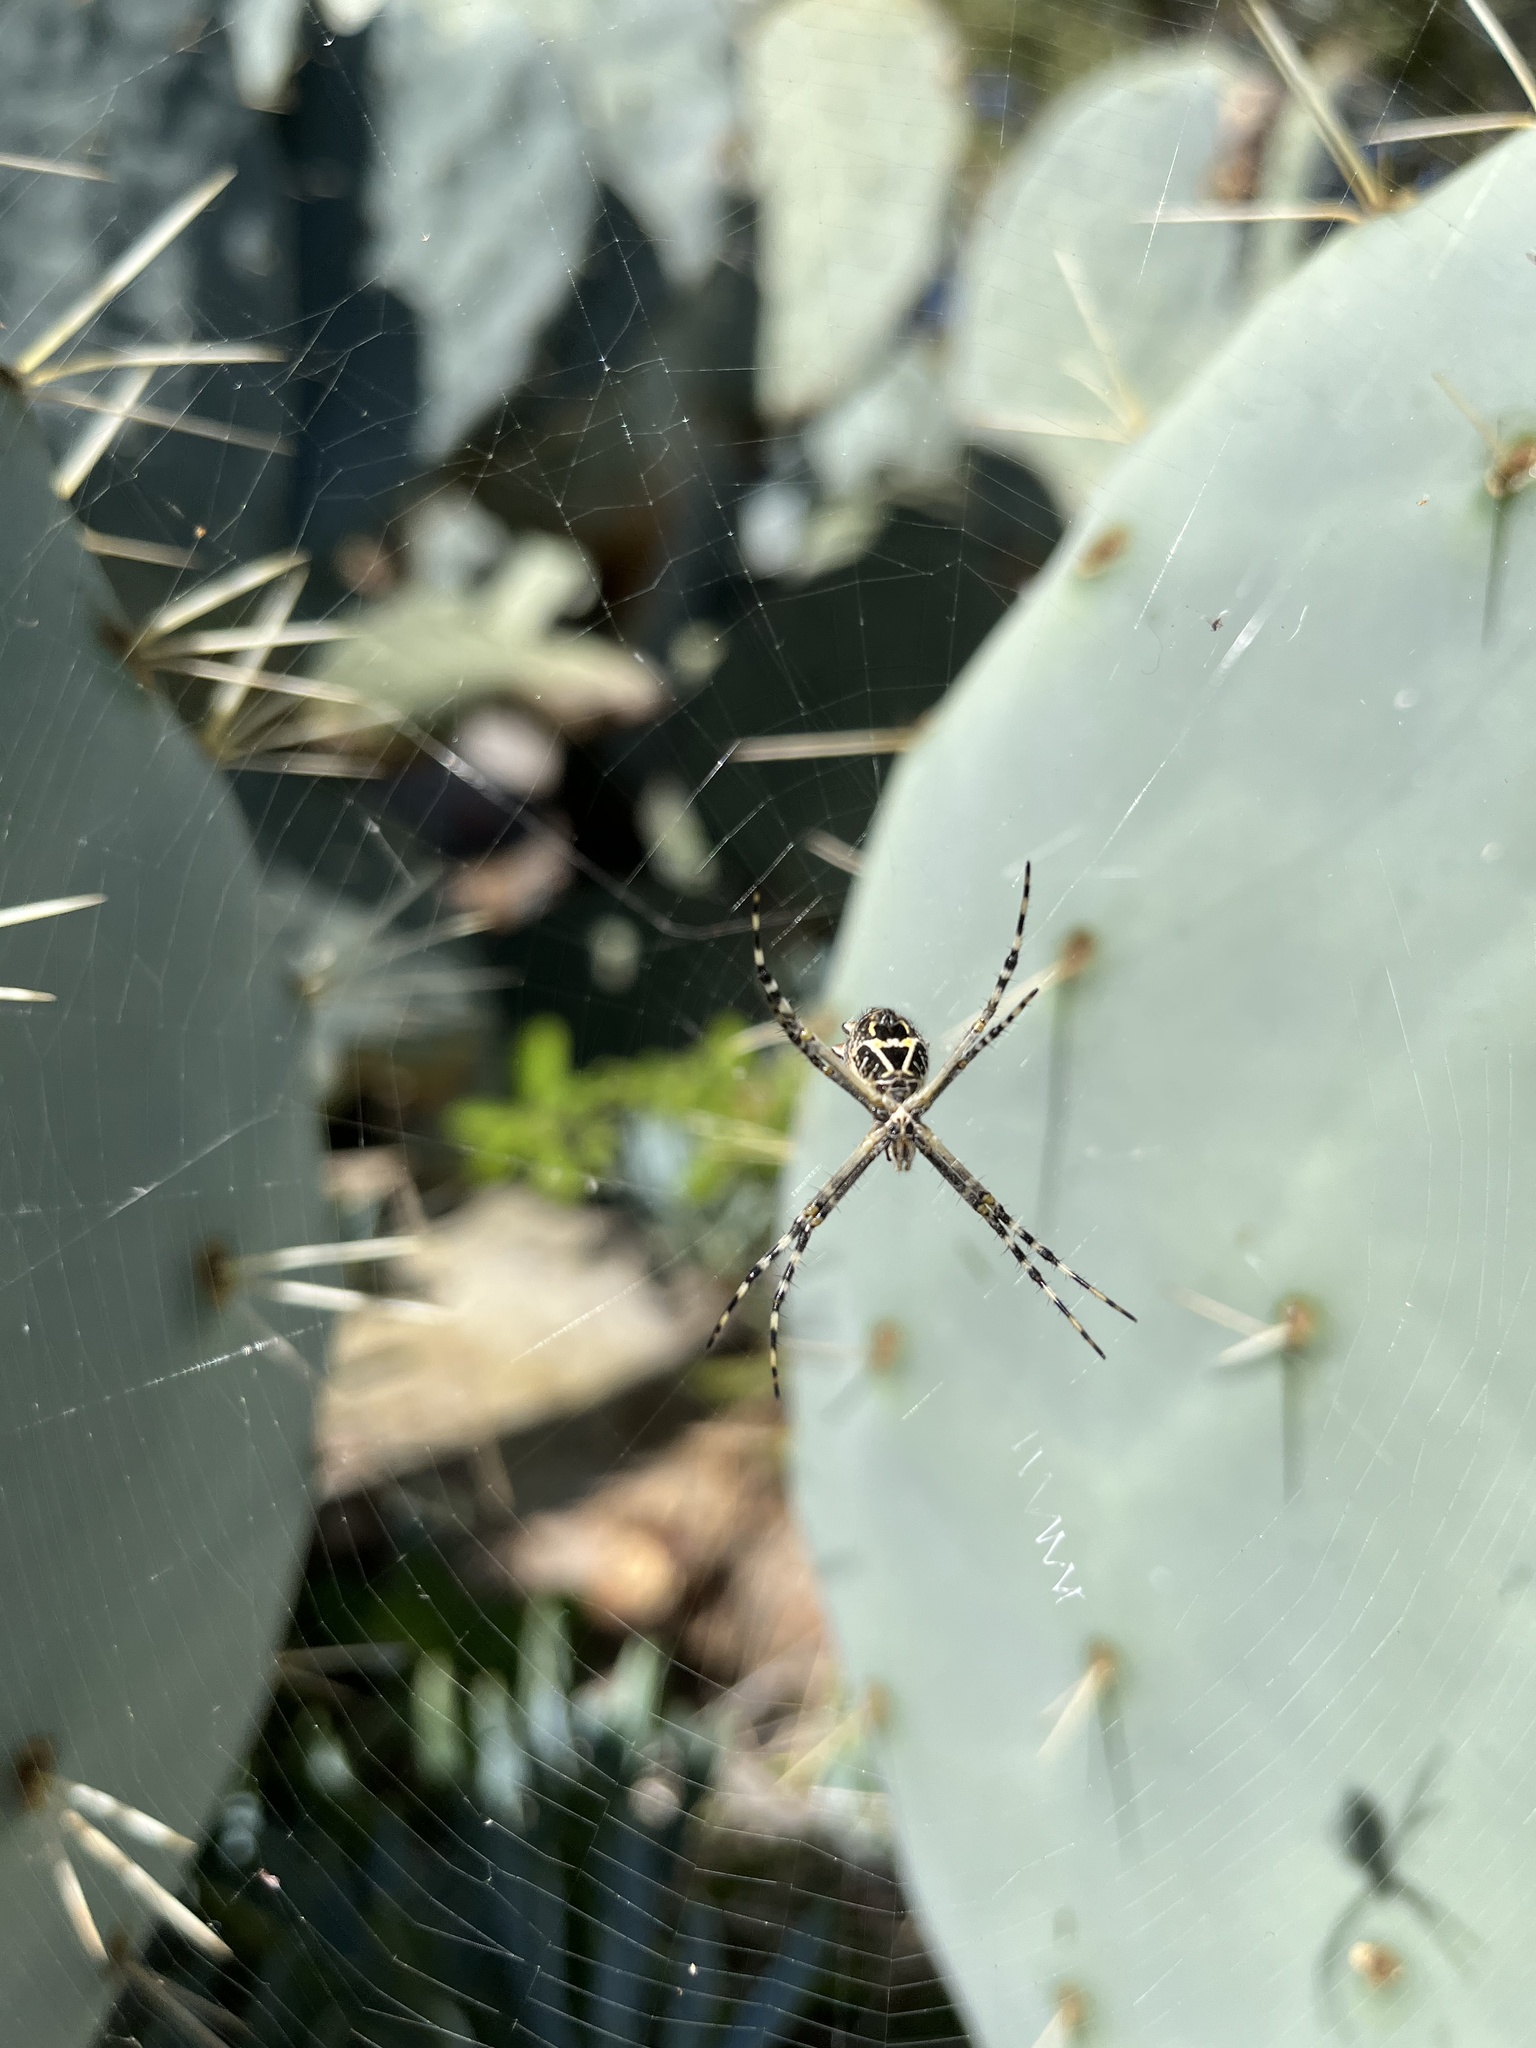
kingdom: Animalia
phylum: Arthropoda
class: Arachnida
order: Araneae
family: Araneidae
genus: Argiope
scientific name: Argiope argentata
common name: Orb weavers
